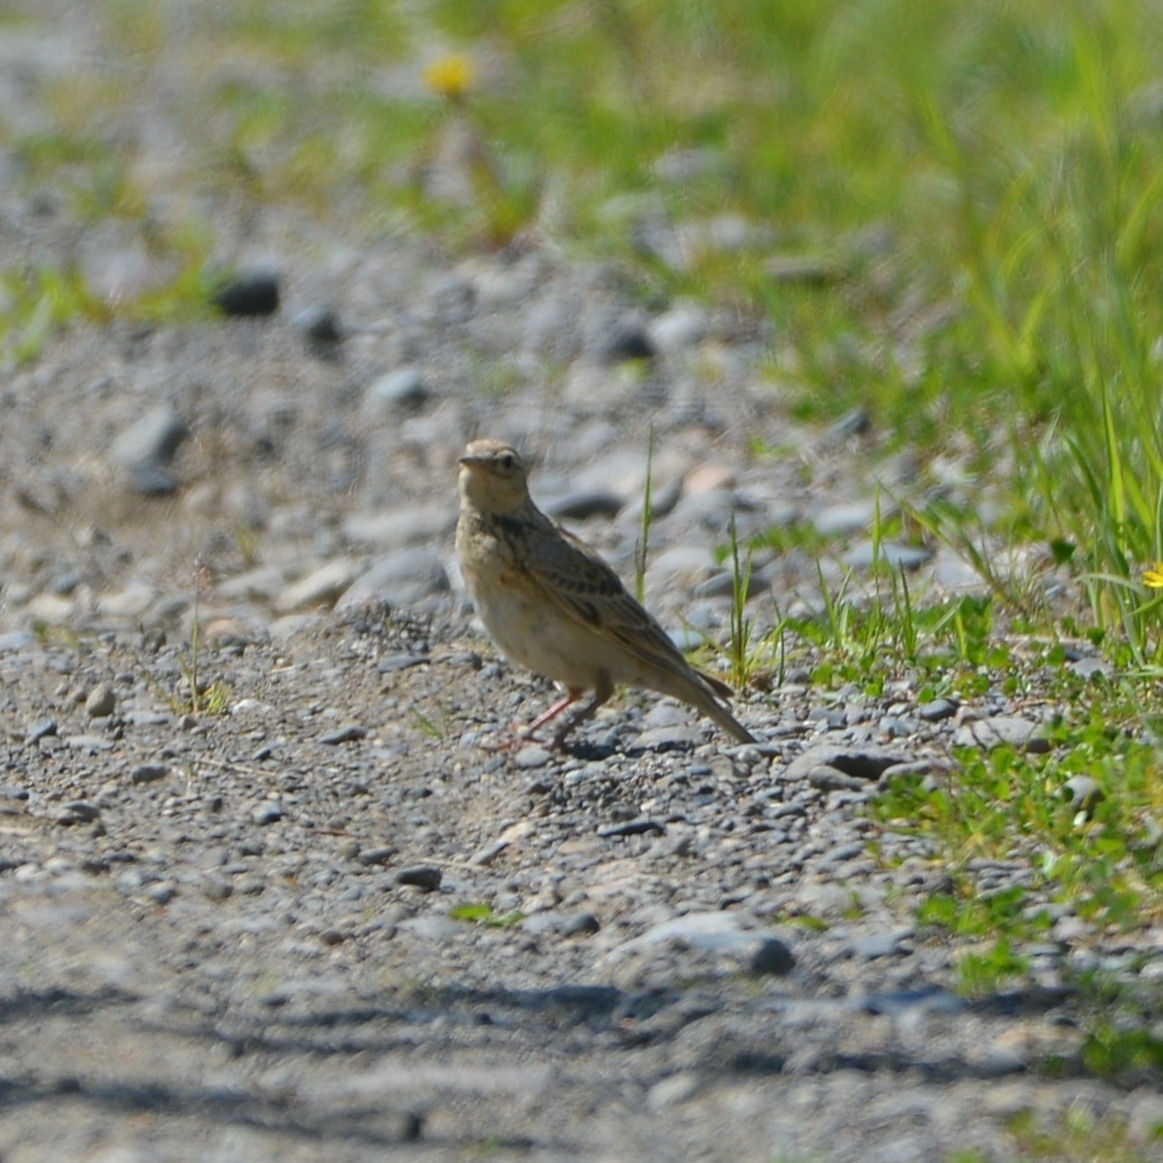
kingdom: Animalia
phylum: Chordata
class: Aves
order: Passeriformes
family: Alaudidae
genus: Alauda
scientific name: Alauda arvensis
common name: Eurasian skylark
